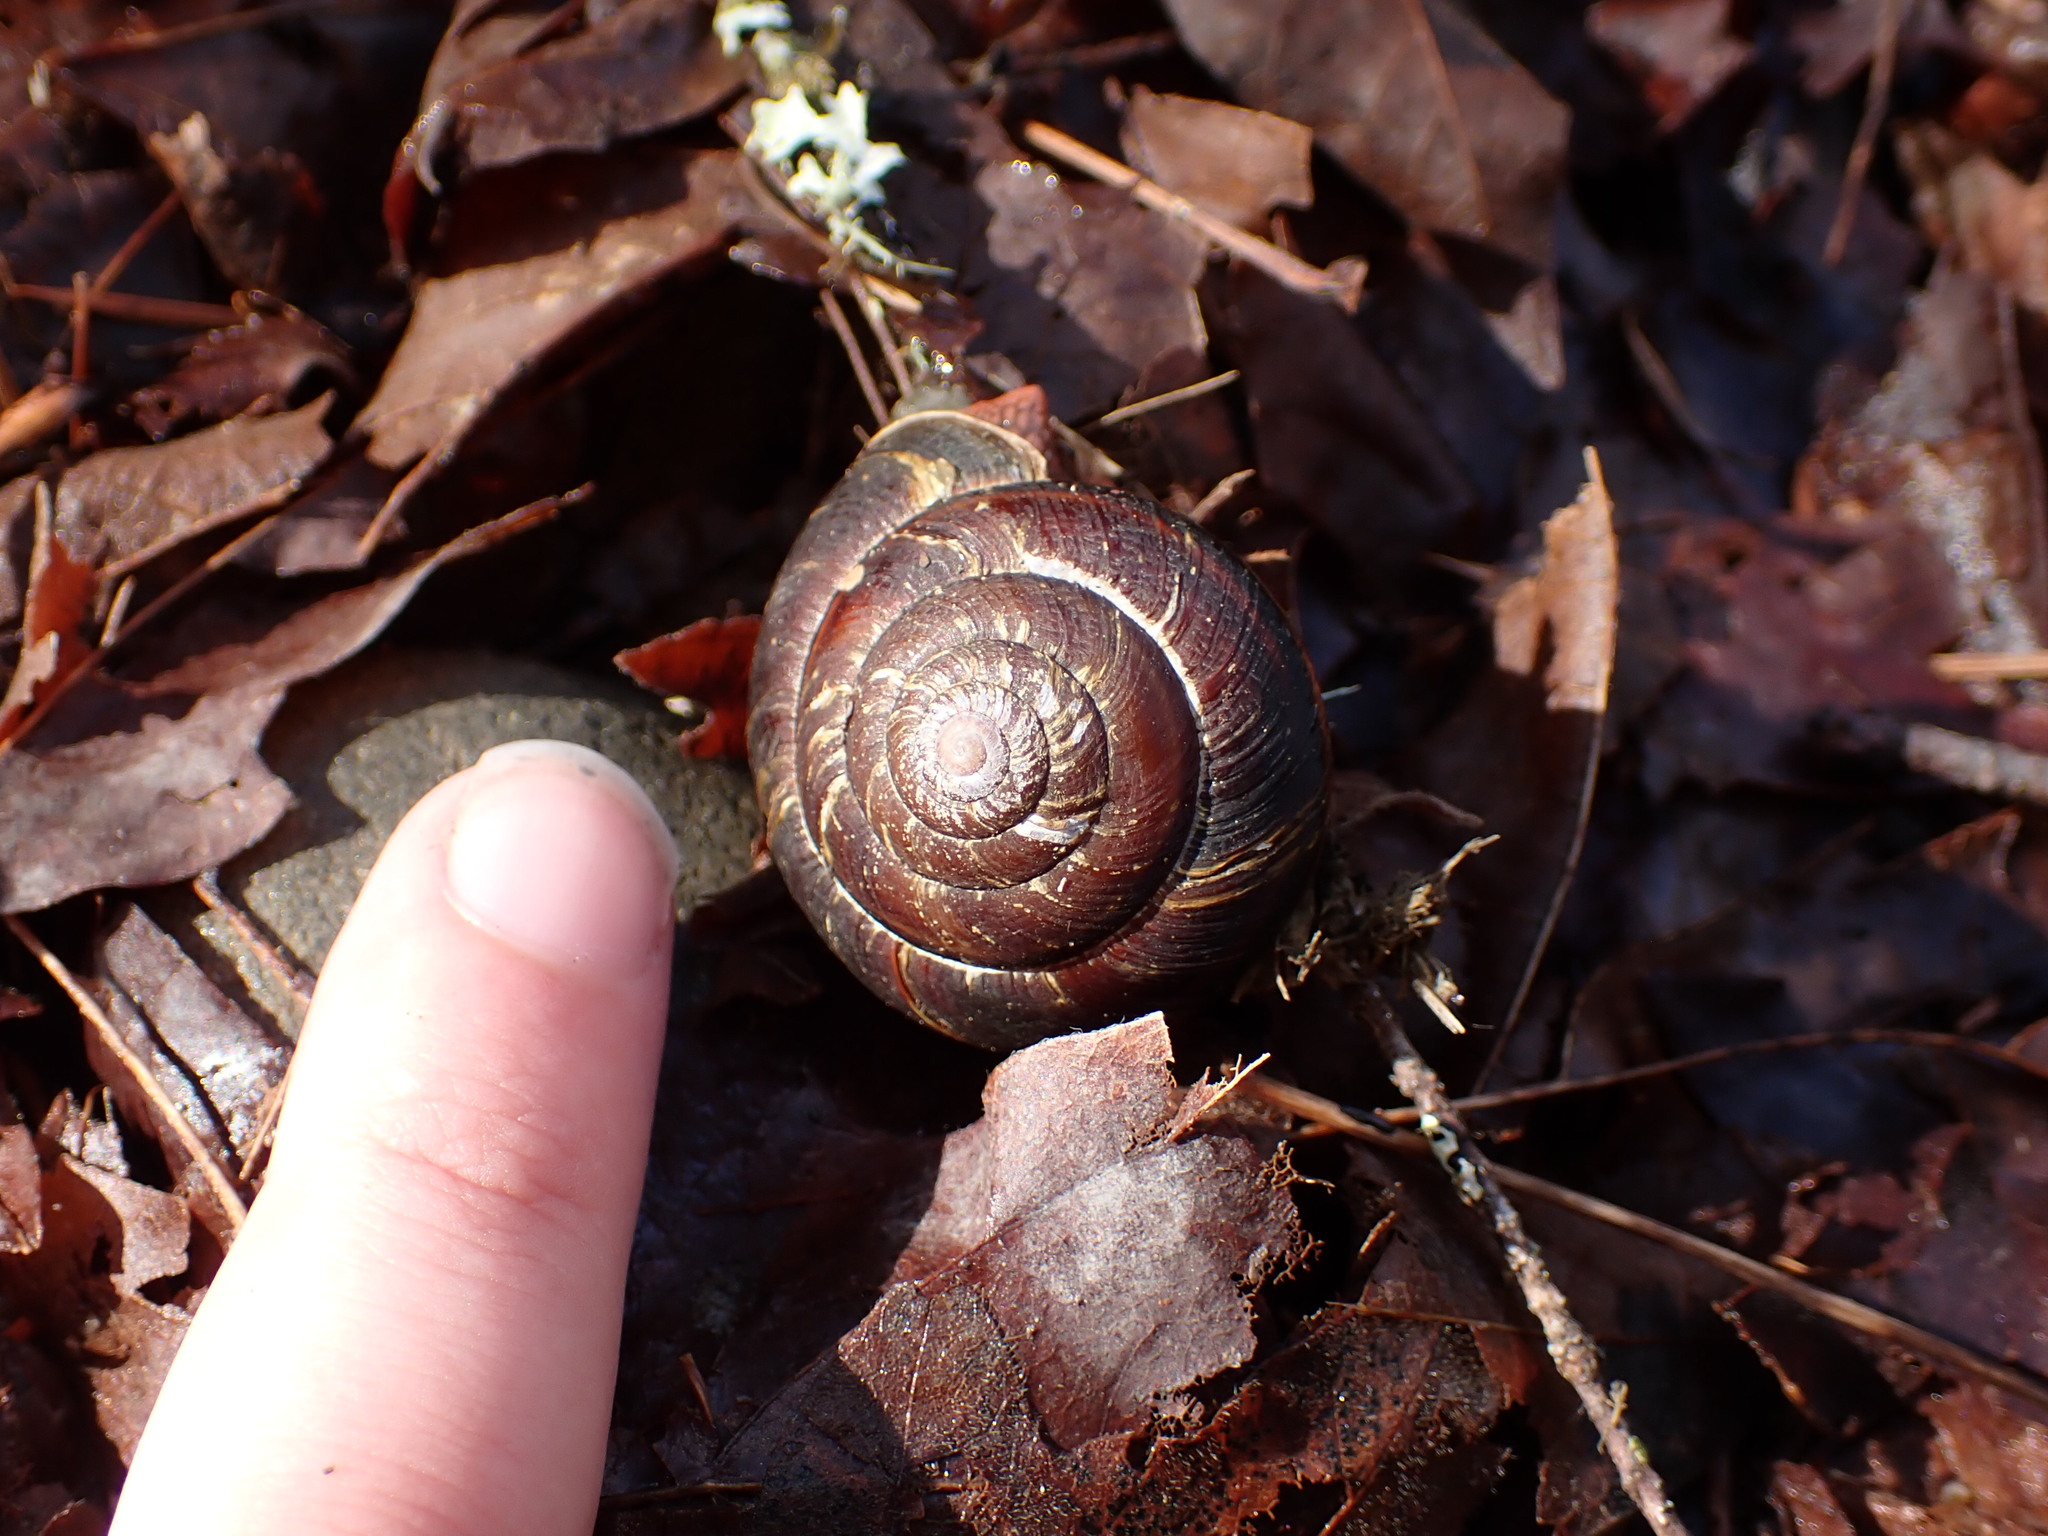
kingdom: Animalia
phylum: Mollusca
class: Gastropoda
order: Stylommatophora
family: Xanthonychidae
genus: Monadenia
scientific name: Monadenia fidelis
